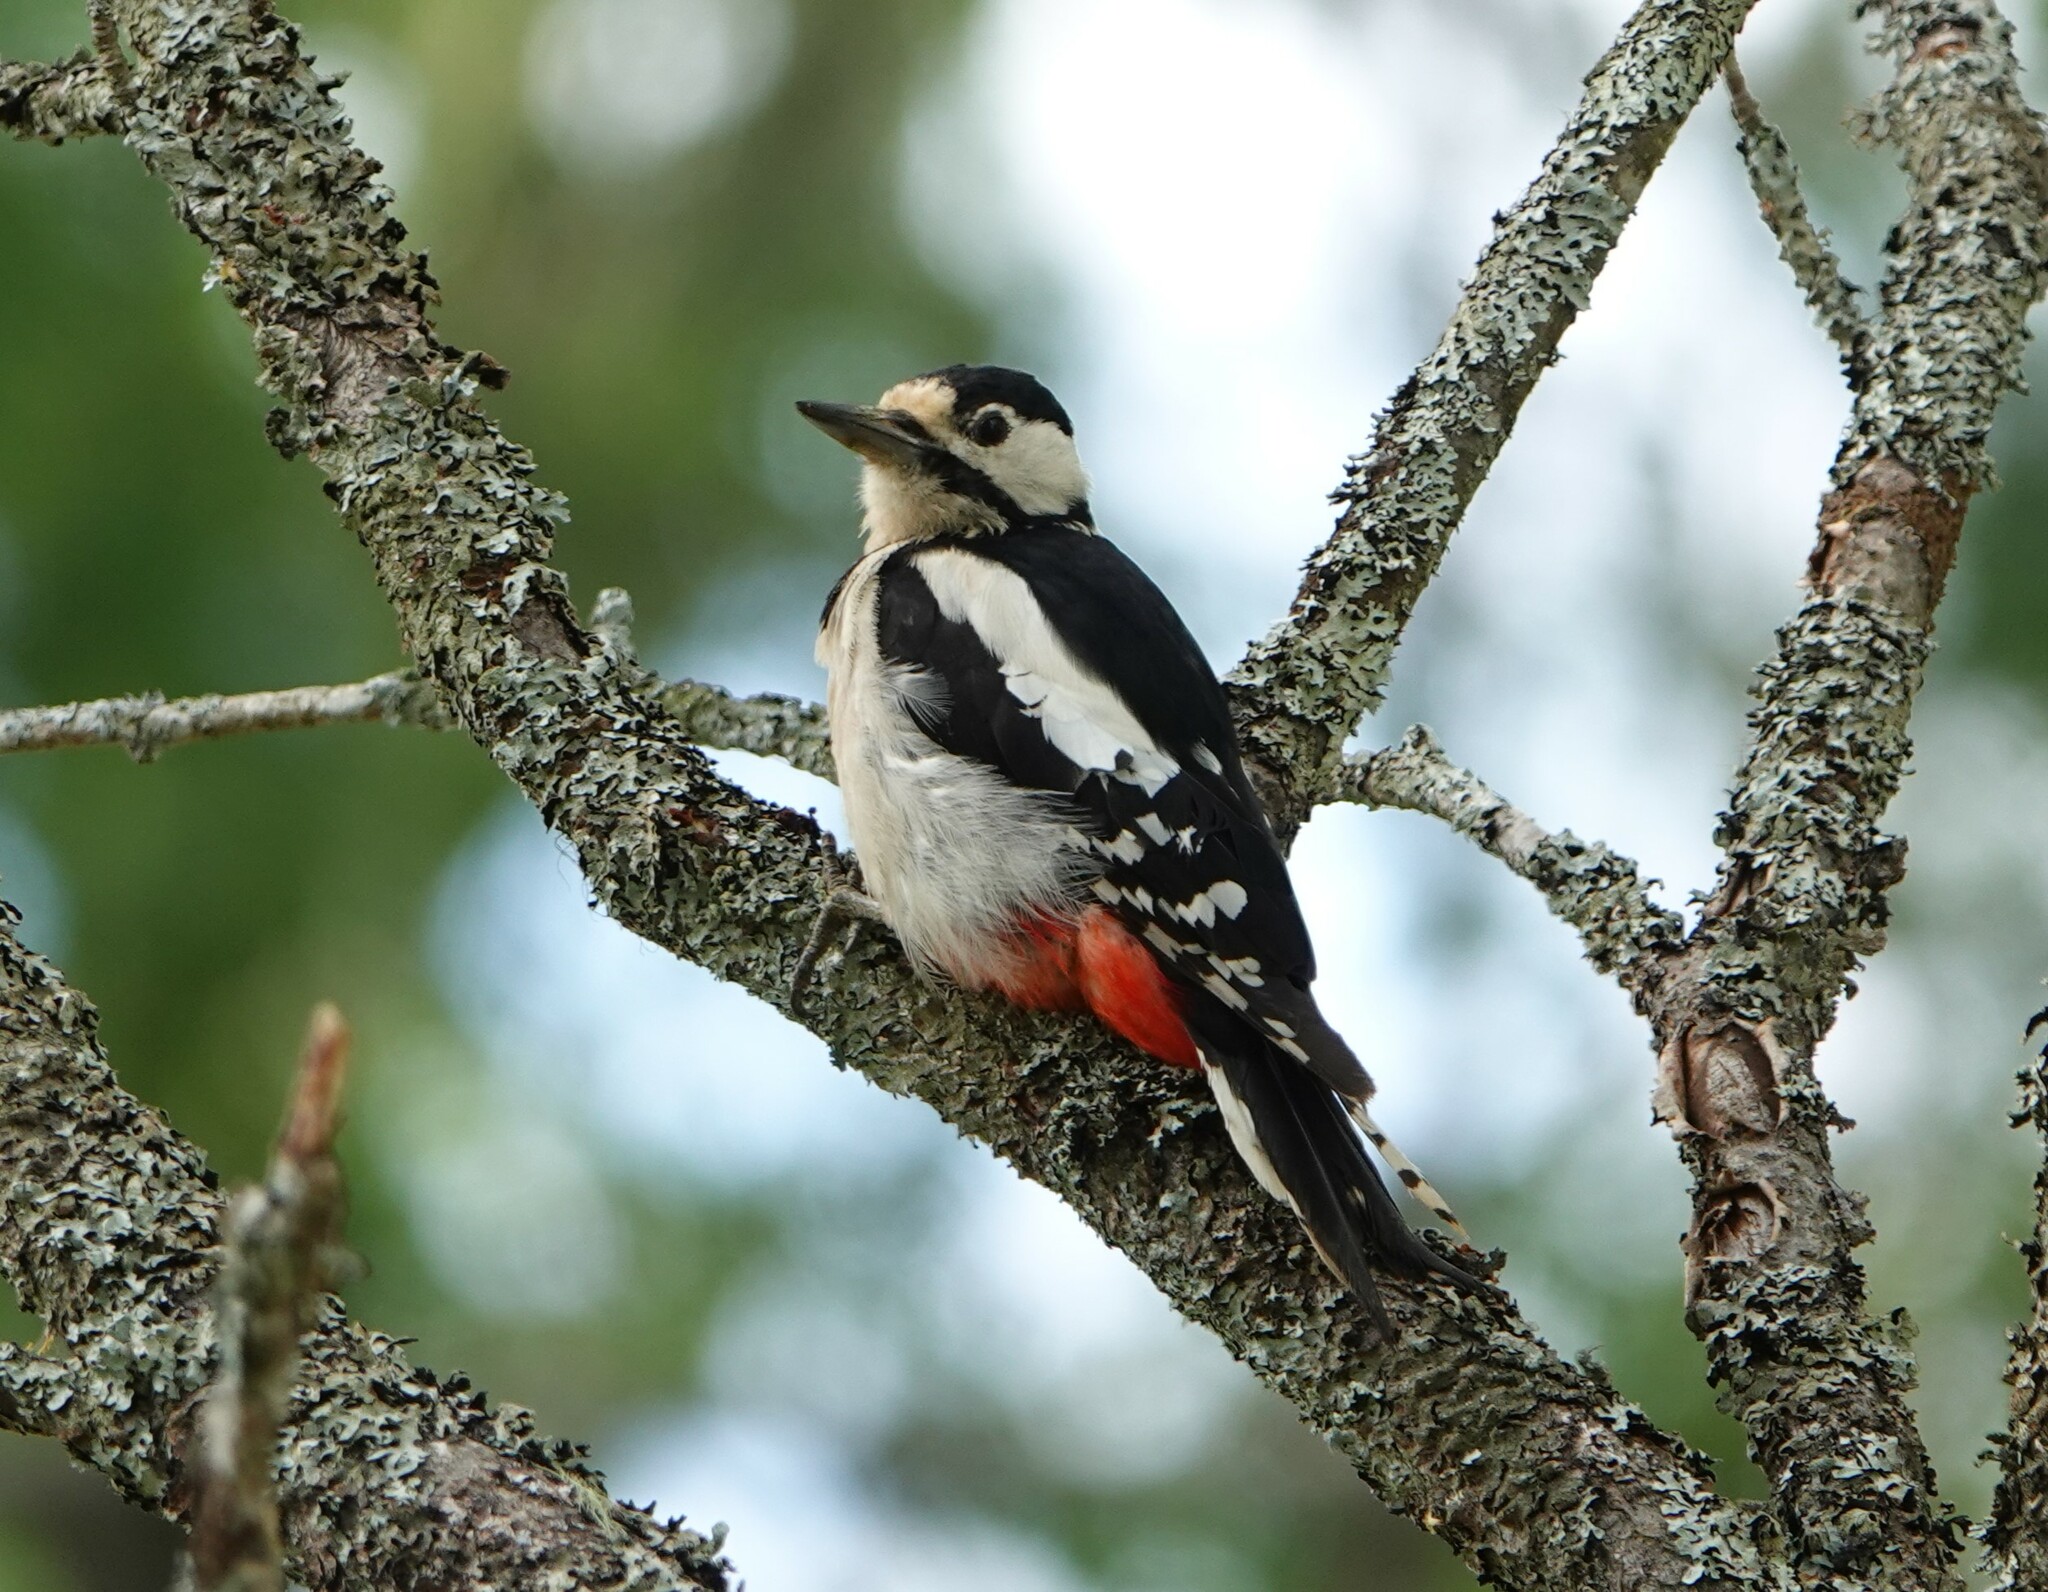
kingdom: Animalia
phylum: Chordata
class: Aves
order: Piciformes
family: Picidae
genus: Dendrocopos
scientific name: Dendrocopos major
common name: Great spotted woodpecker
